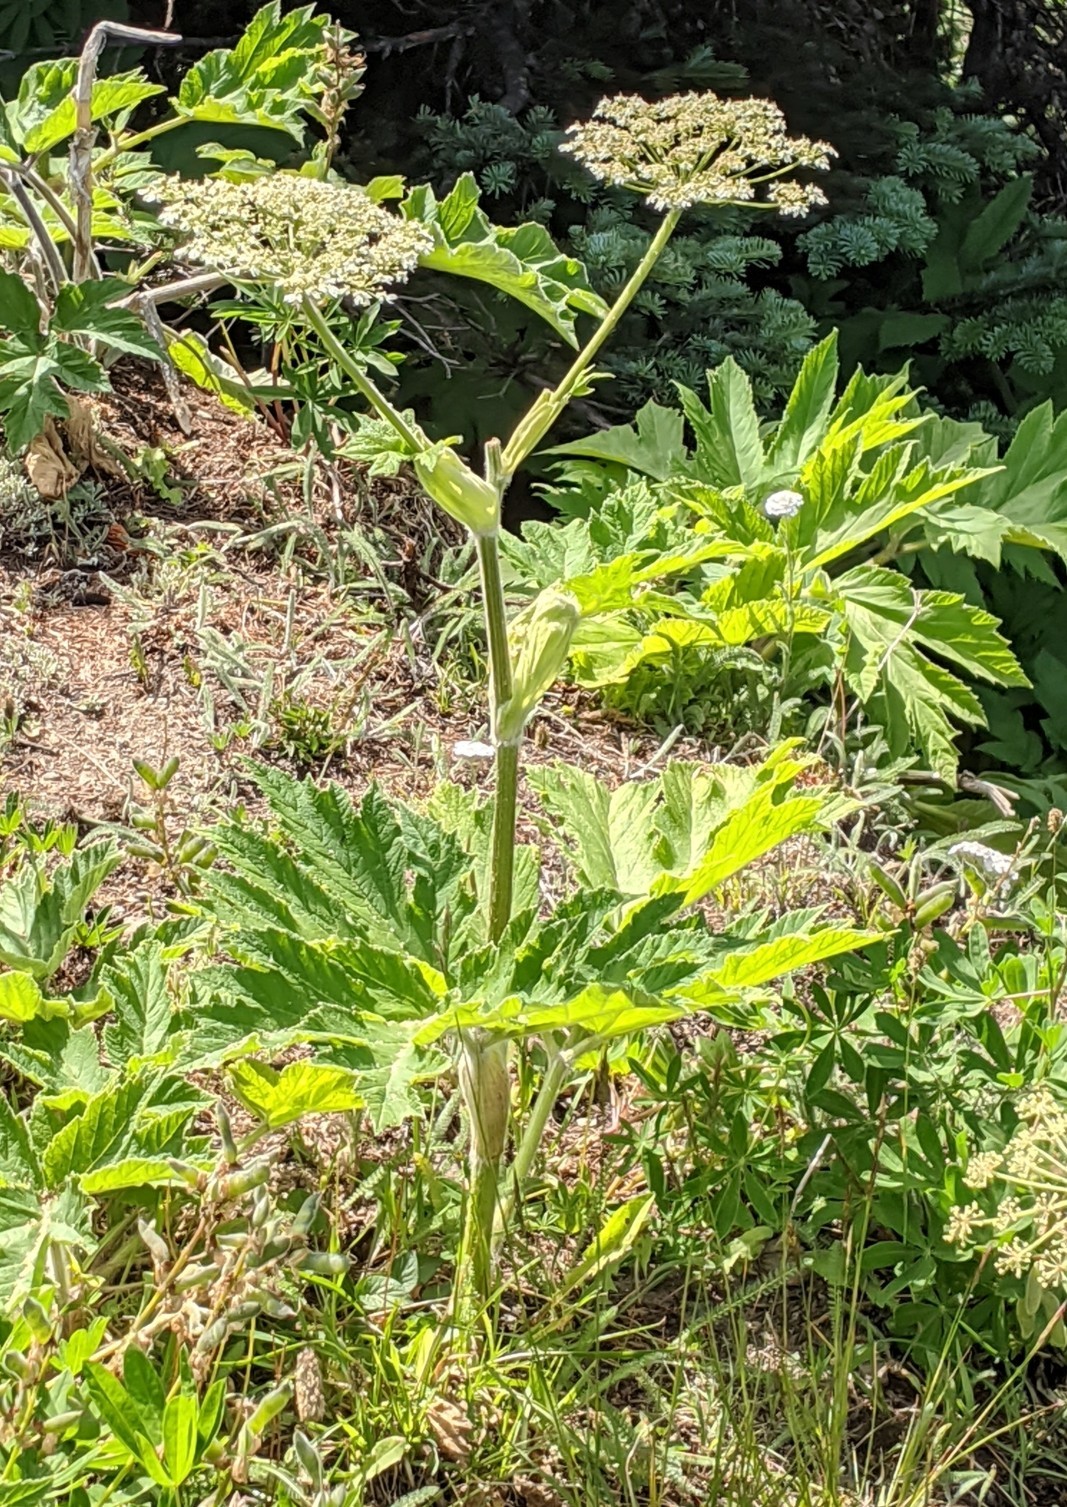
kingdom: Plantae
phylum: Tracheophyta
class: Magnoliopsida
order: Apiales
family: Apiaceae
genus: Heracleum
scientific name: Heracleum maximum
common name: American cow parsnip
